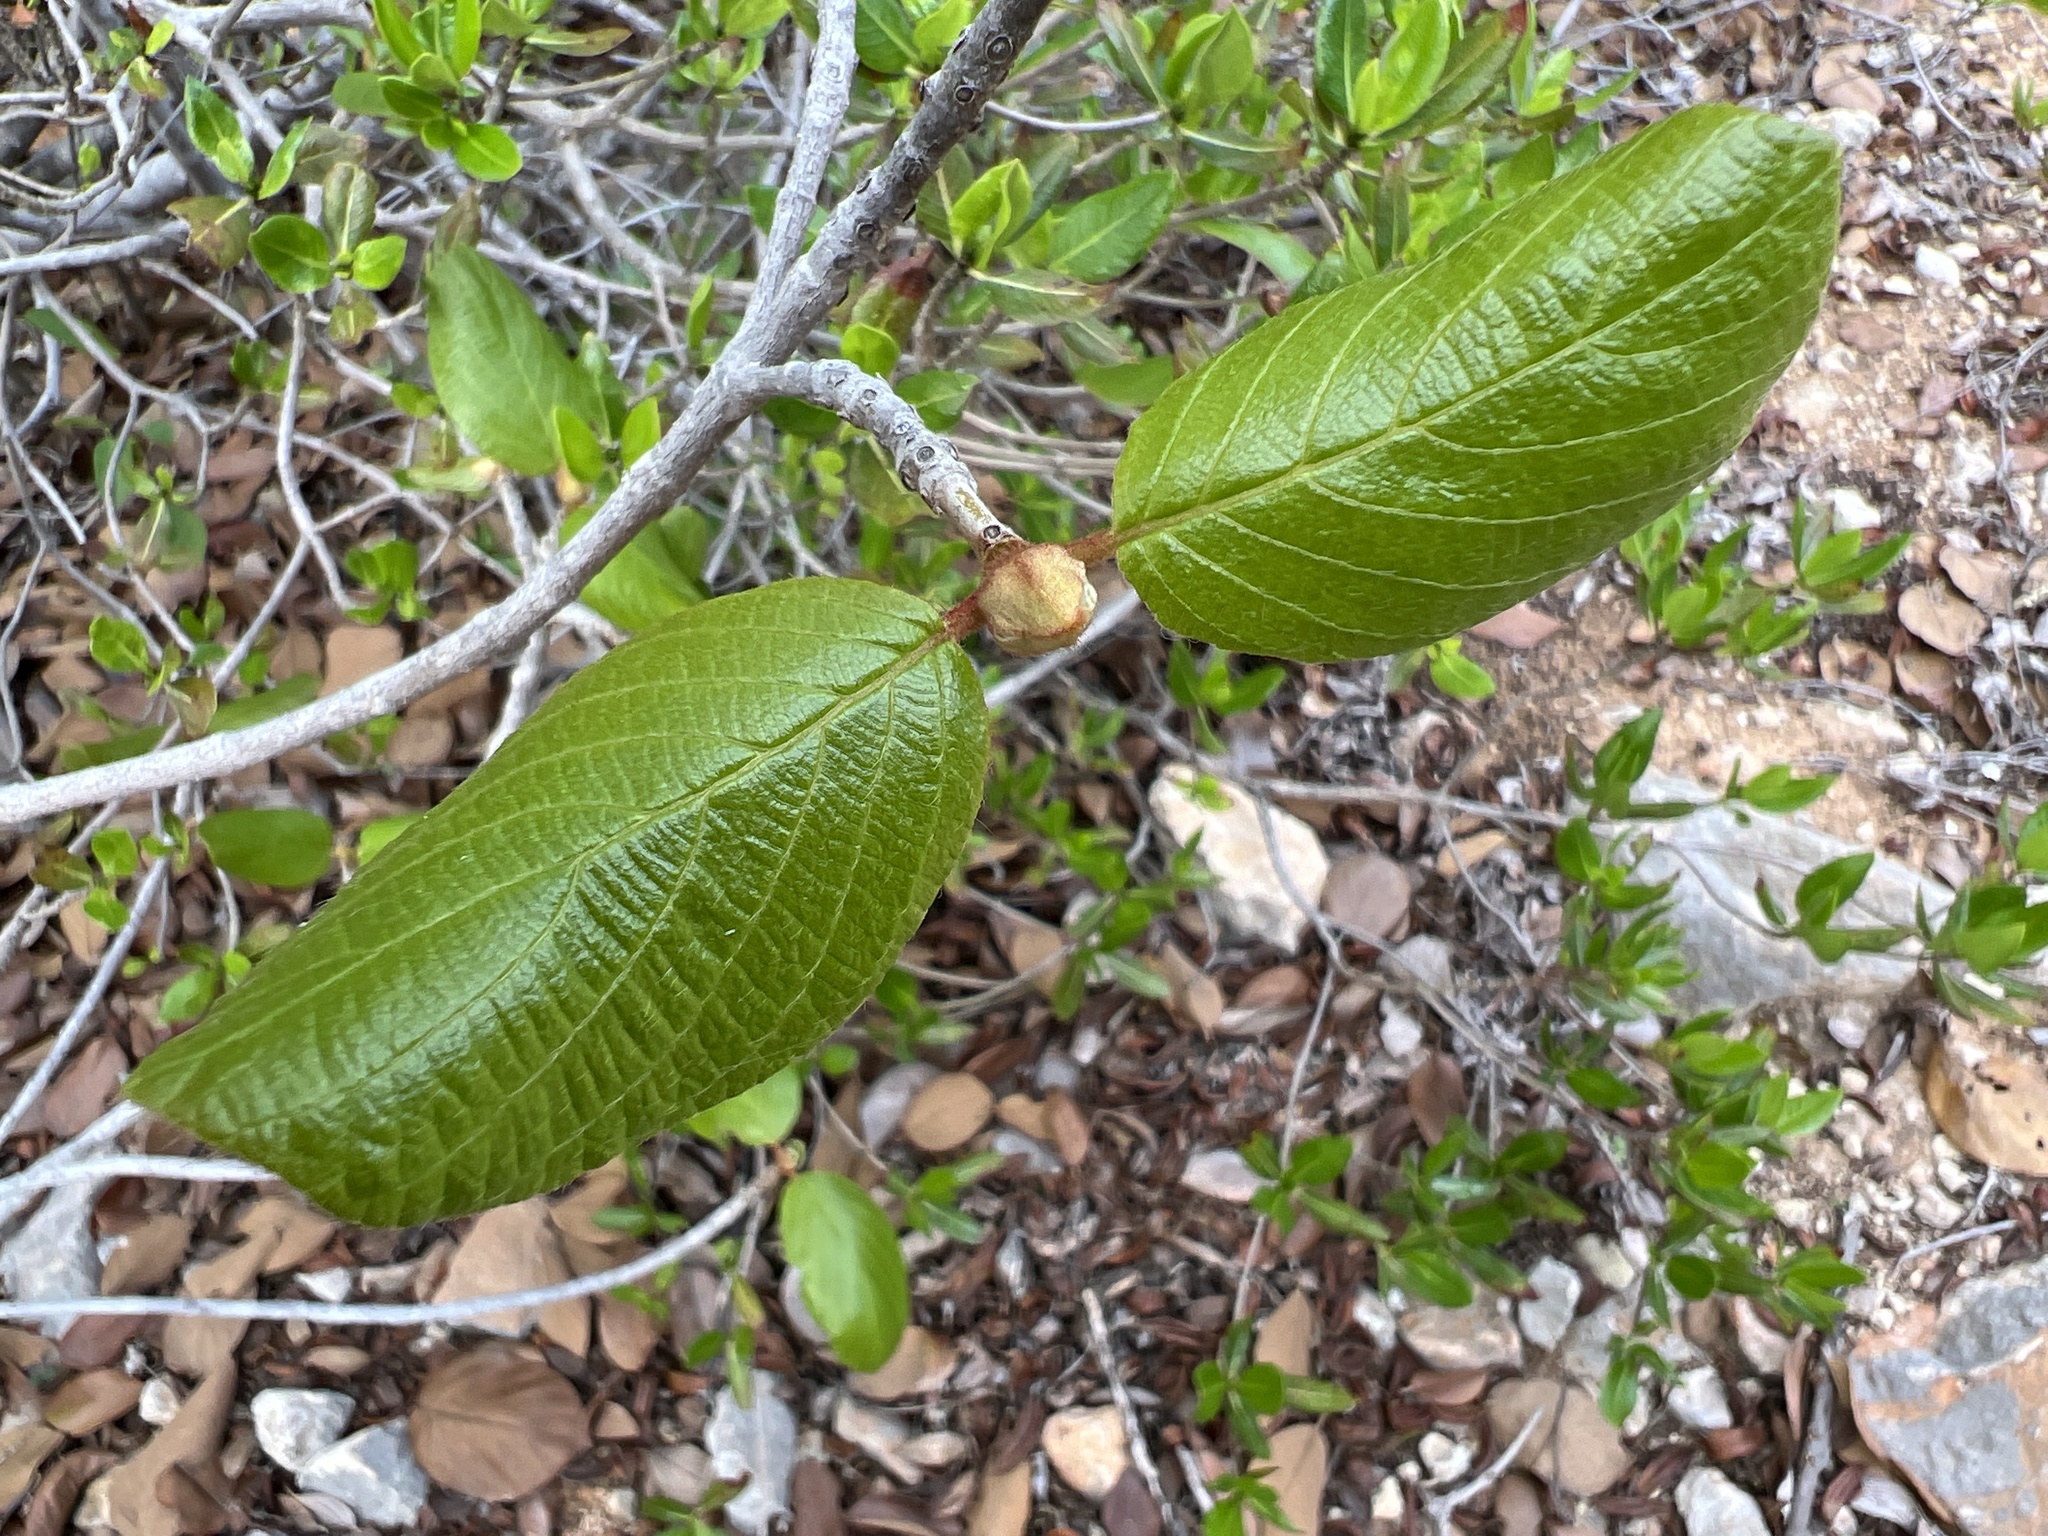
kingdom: Plantae
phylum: Tracheophyta
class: Magnoliopsida
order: Gentianales
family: Rubiaceae
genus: Guettarda
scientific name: Guettarda krugii
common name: Frogwood
